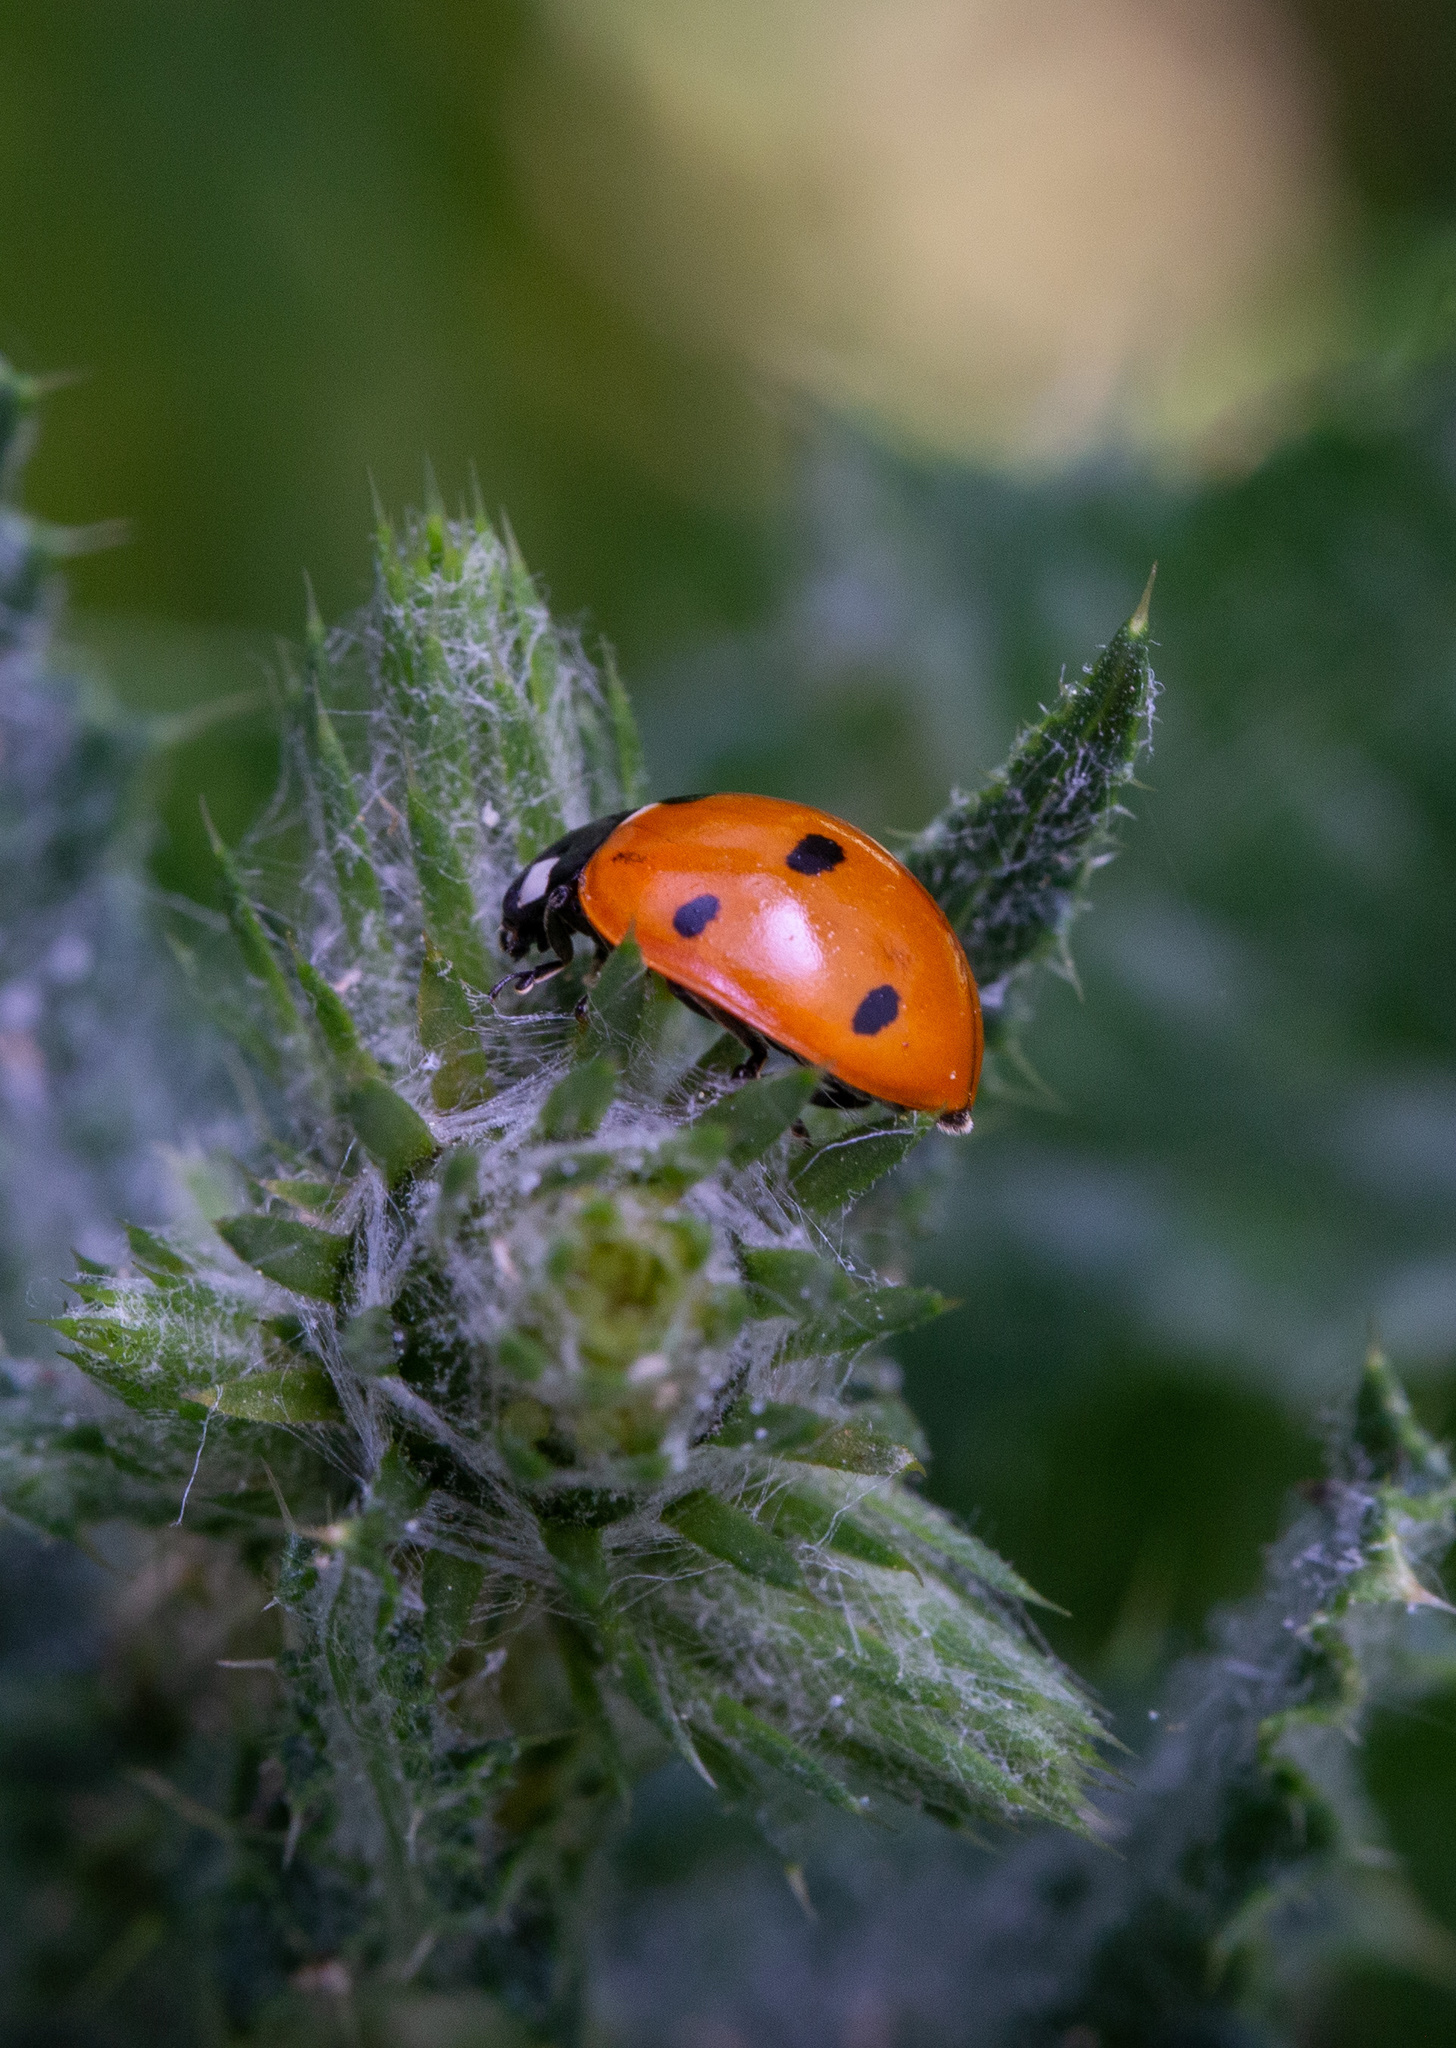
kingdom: Animalia
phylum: Arthropoda
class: Insecta
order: Coleoptera
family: Coccinellidae
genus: Coccinella
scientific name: Coccinella septempunctata
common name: Sevenspotted lady beetle
